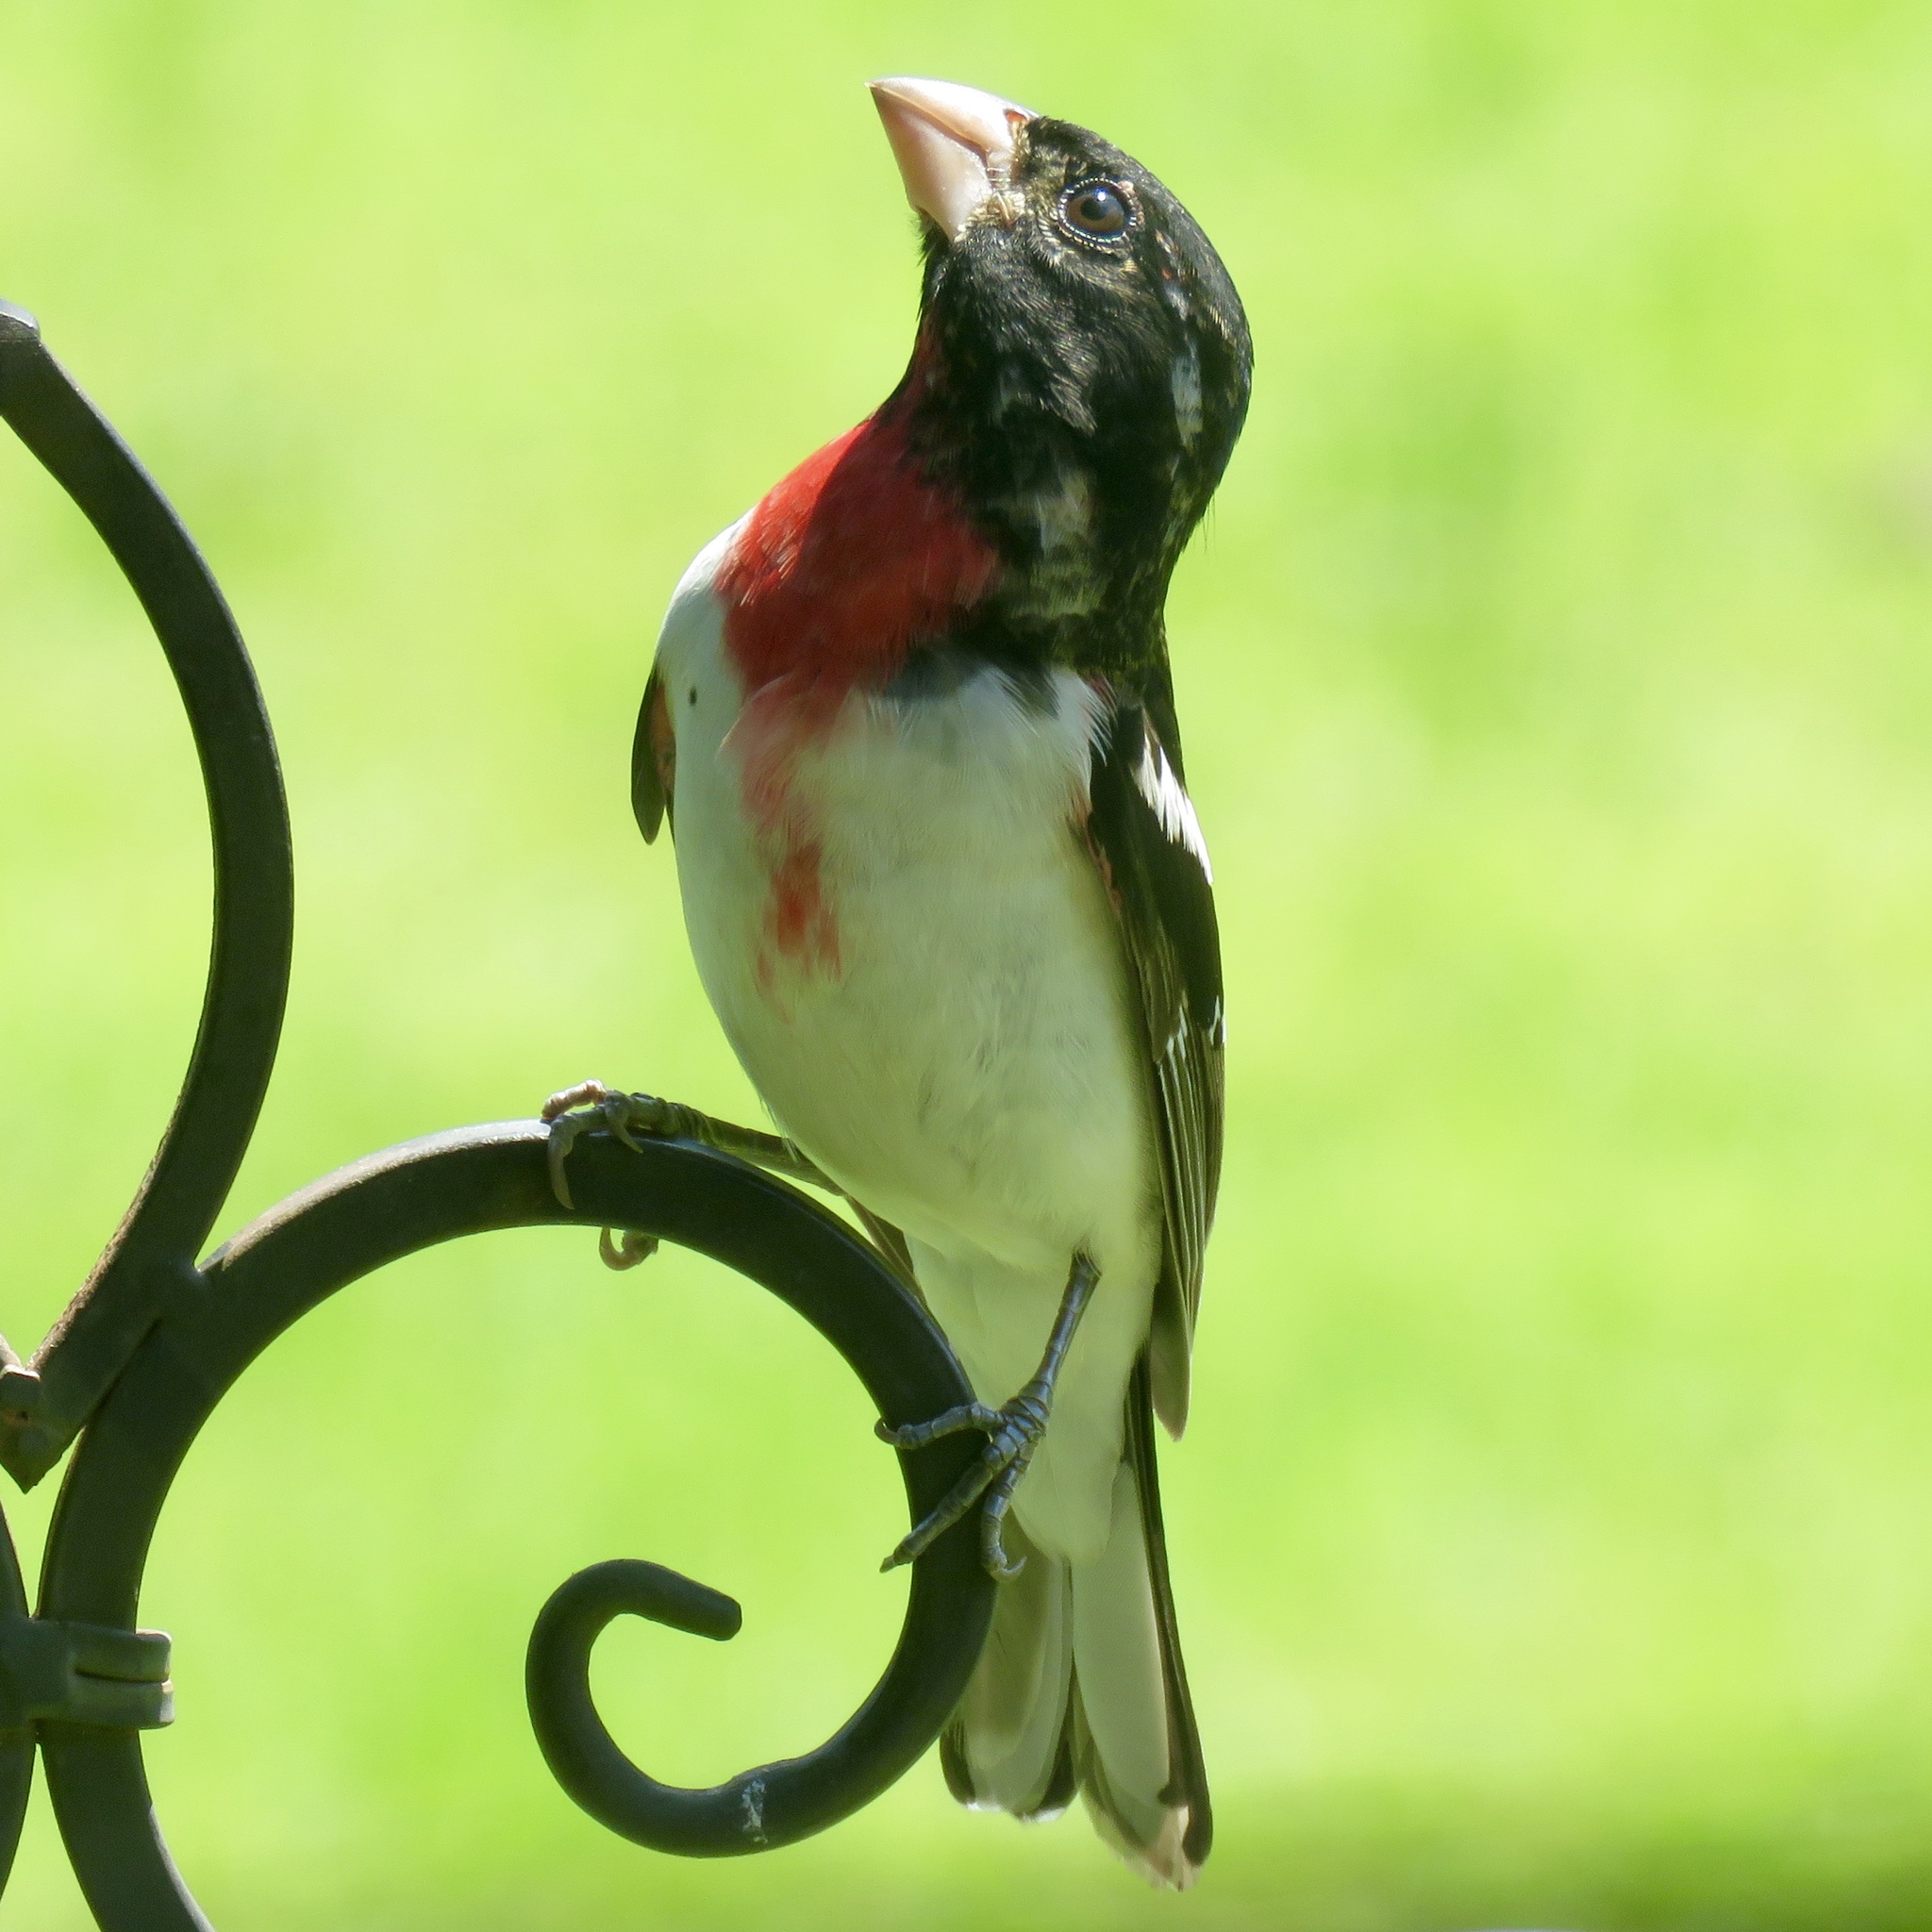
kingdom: Animalia
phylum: Chordata
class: Aves
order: Passeriformes
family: Cardinalidae
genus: Pheucticus
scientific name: Pheucticus ludovicianus
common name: Rose-breasted grosbeak
